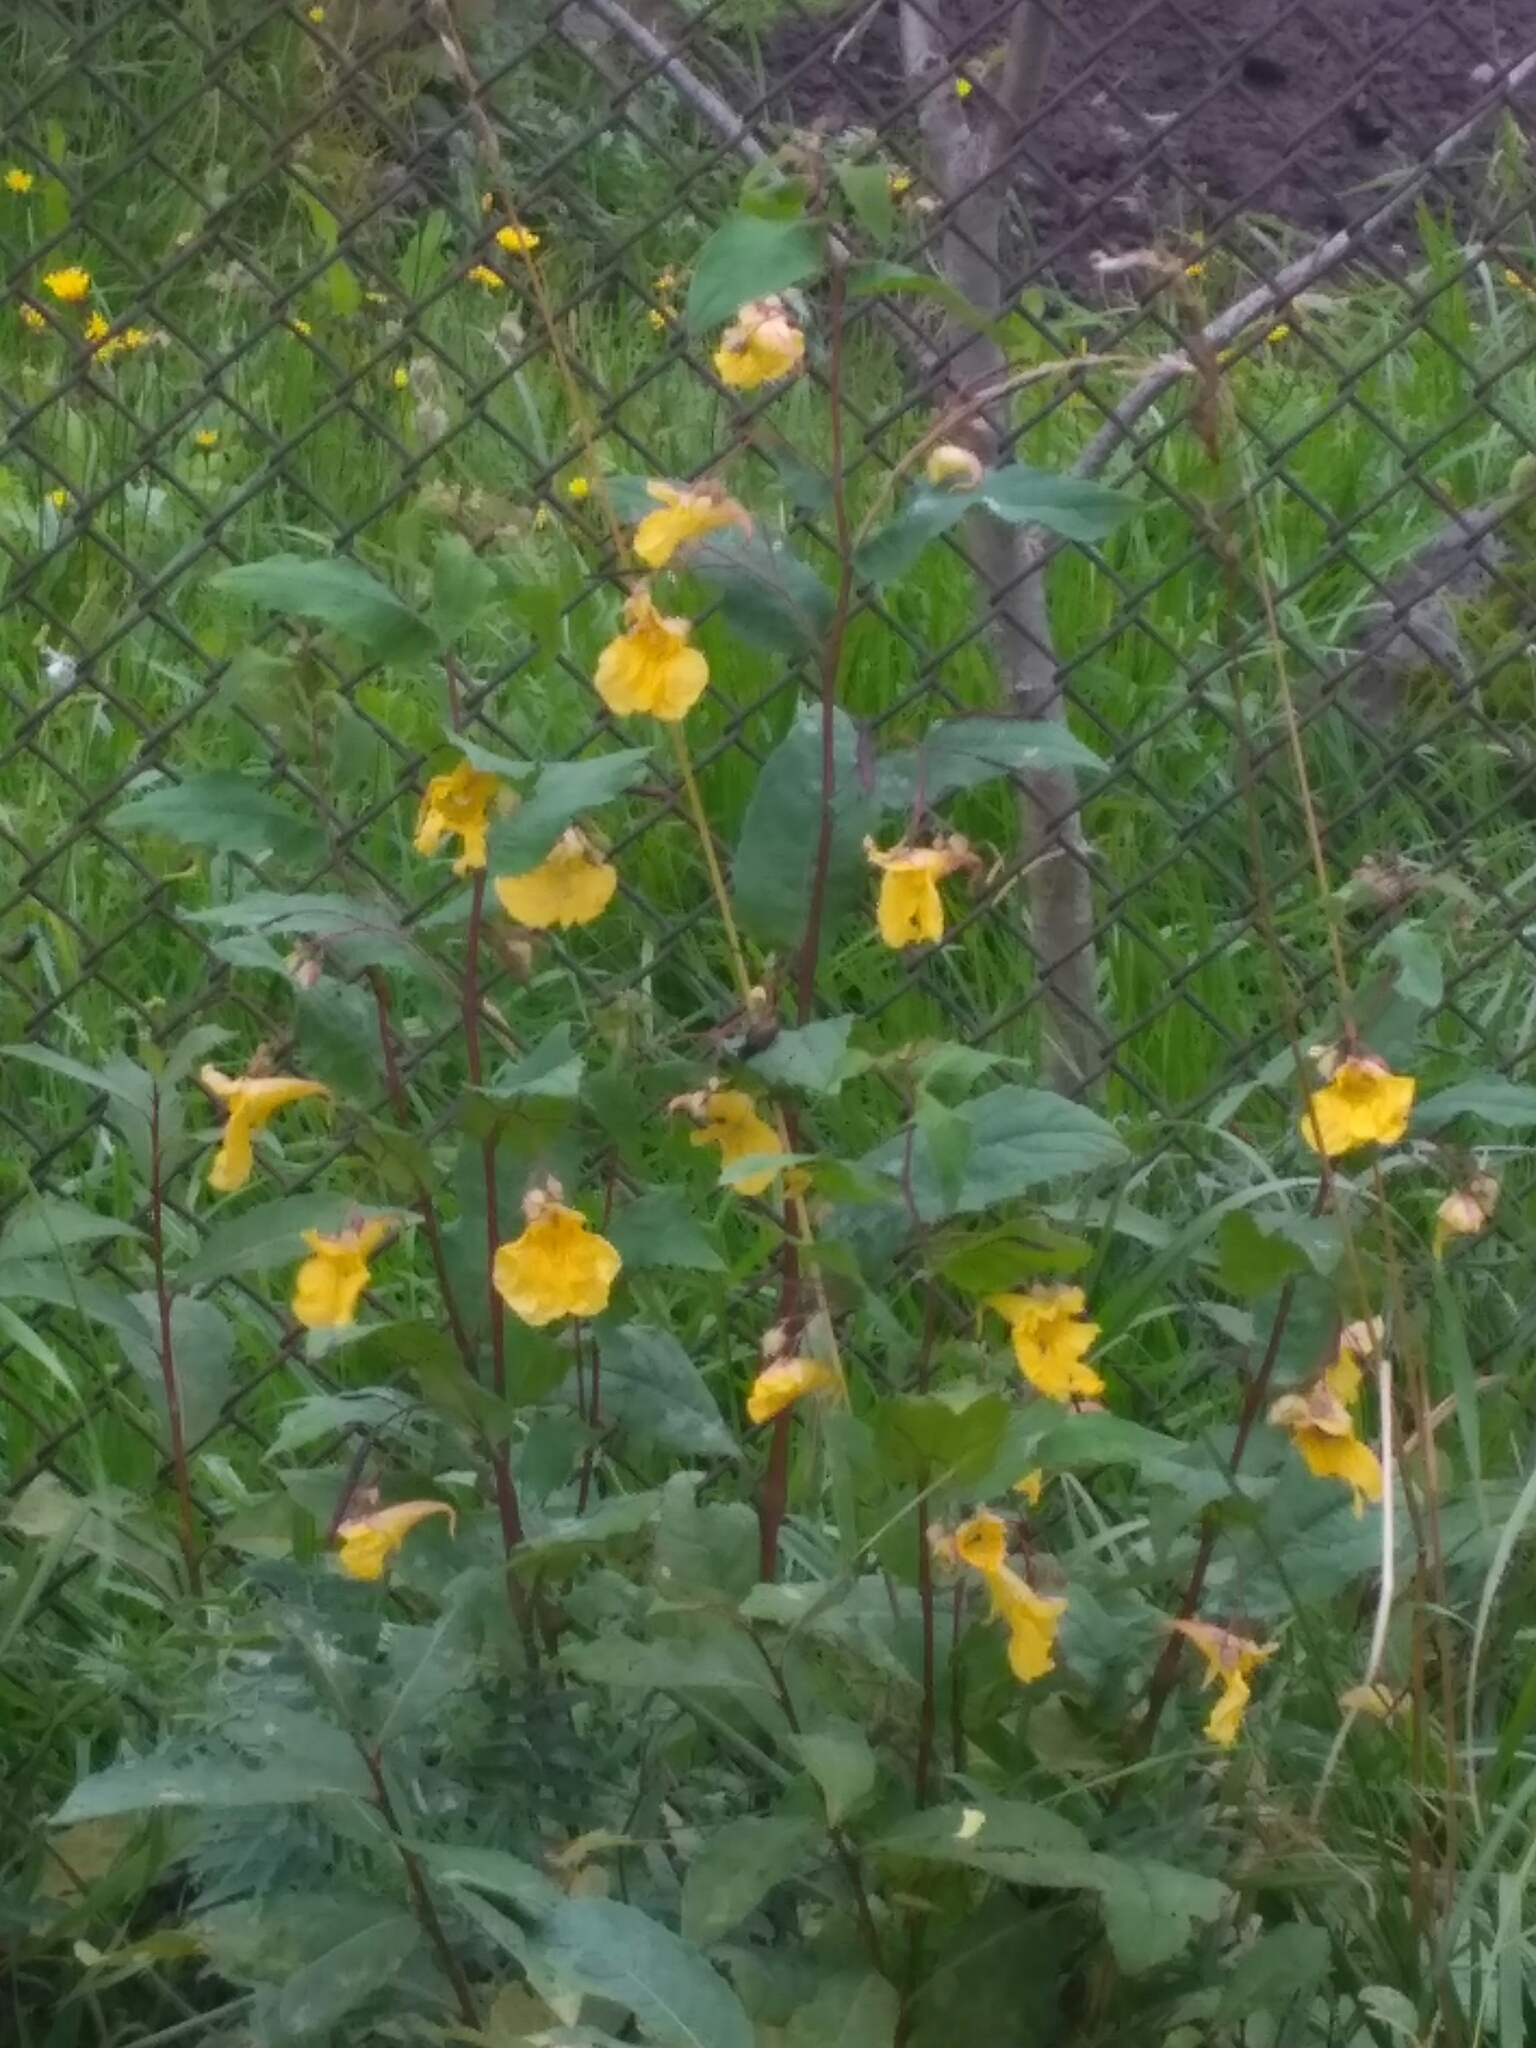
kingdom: Plantae
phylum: Tracheophyta
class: Magnoliopsida
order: Ericales
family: Balsaminaceae
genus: Impatiens
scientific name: Impatiens noli-tangere
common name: Touch-me-not balsam
